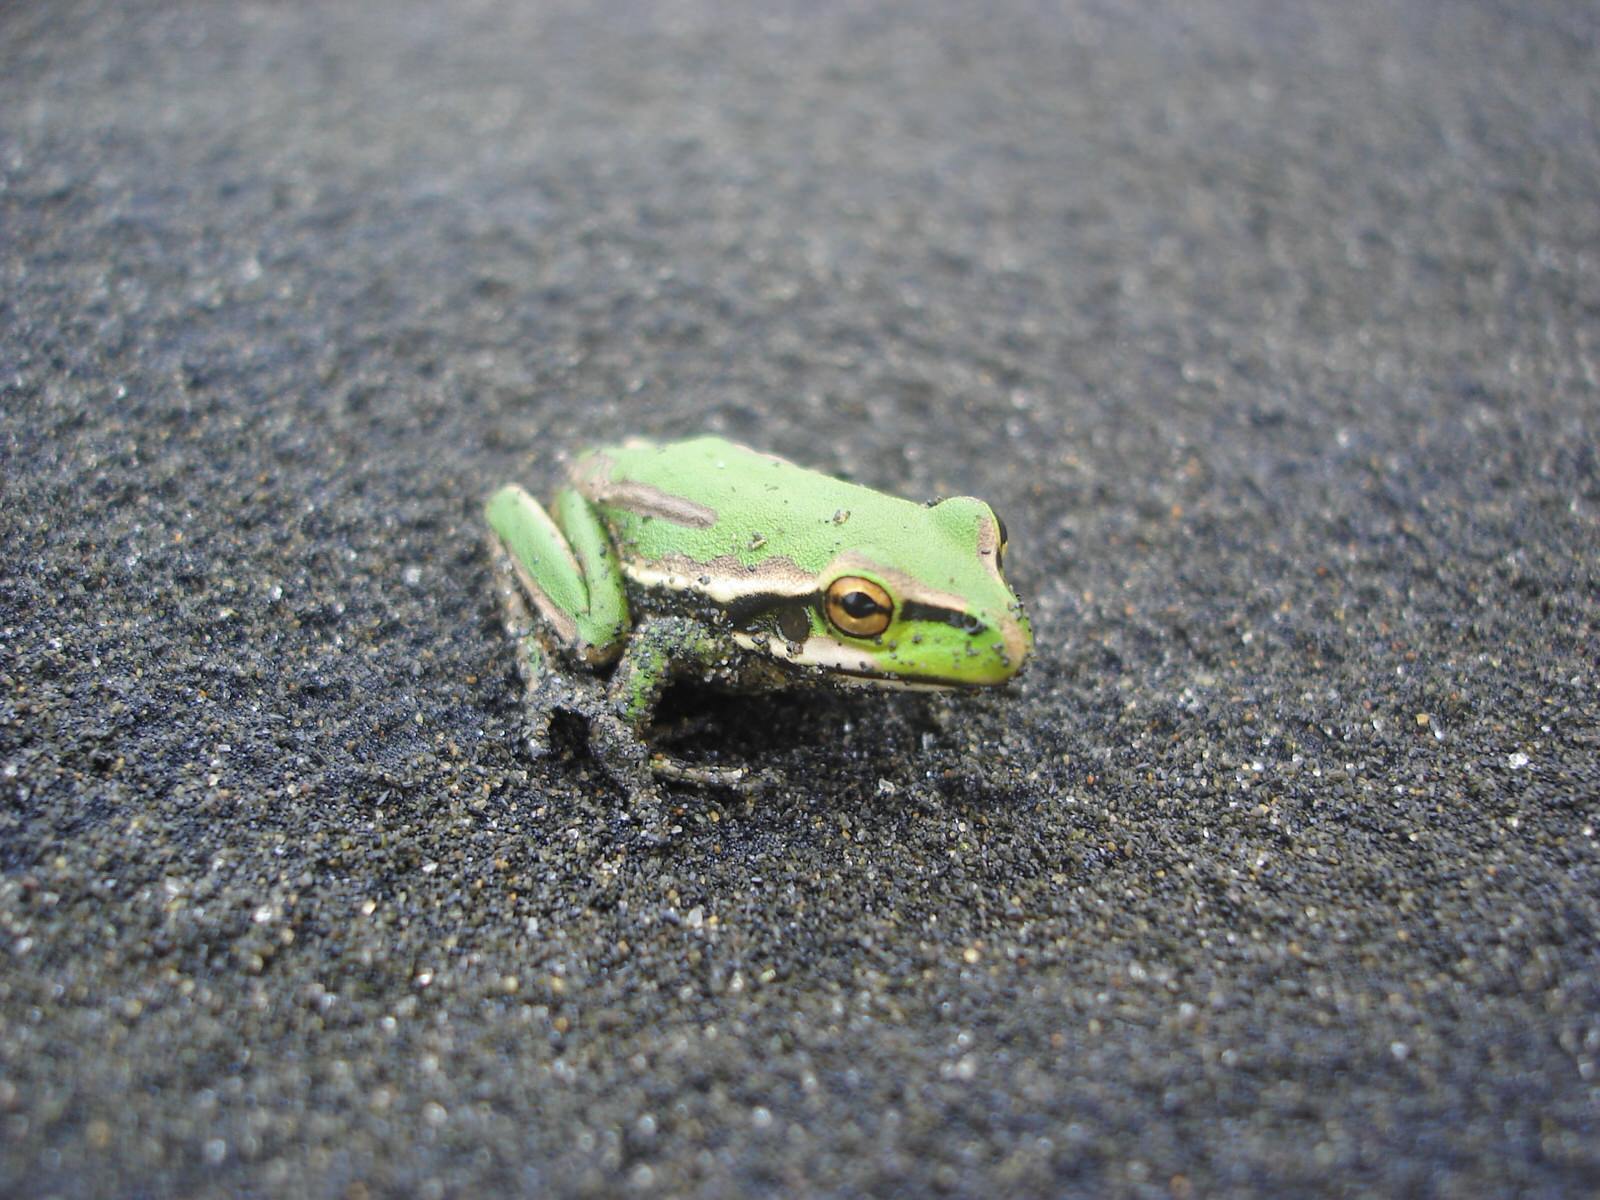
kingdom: Animalia
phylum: Chordata
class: Amphibia
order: Anura
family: Pelodryadidae
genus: Ranoidea
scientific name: Ranoidea aurea
